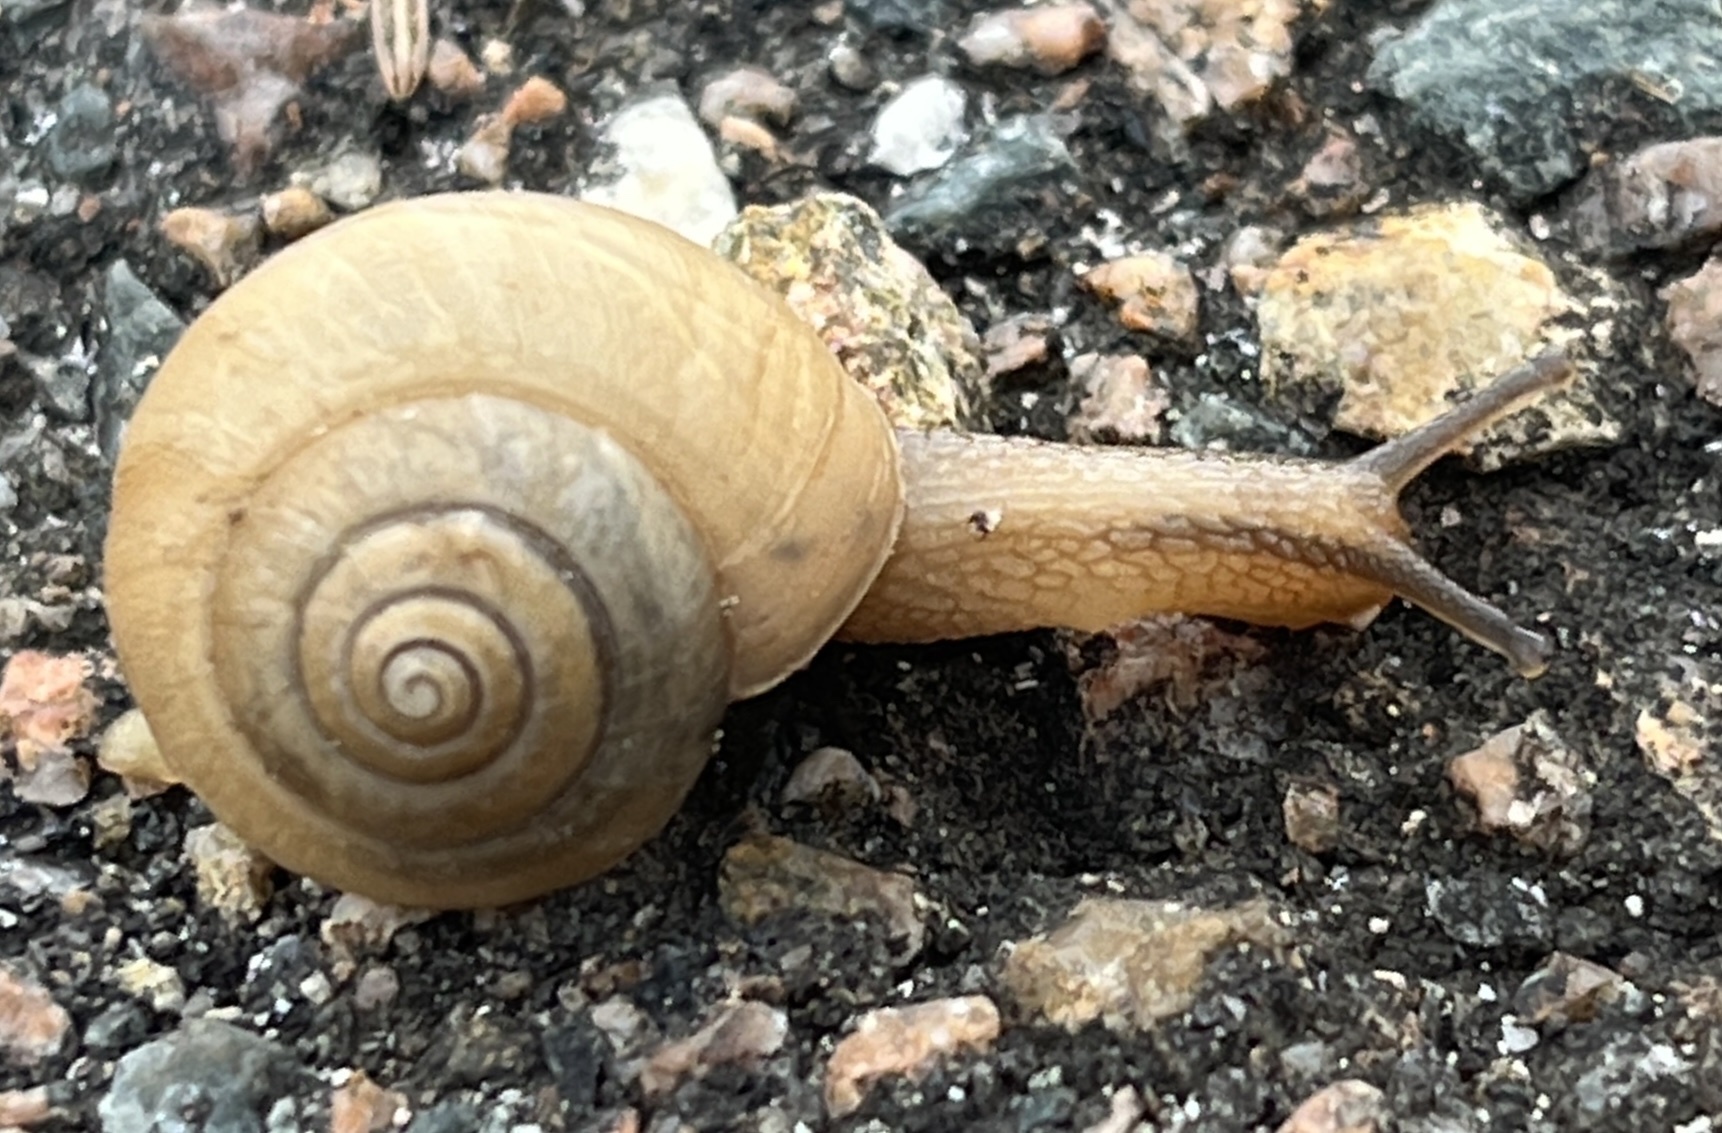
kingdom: Animalia
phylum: Mollusca
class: Gastropoda
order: Stylommatophora
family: Camaenidae
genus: Bradybaena
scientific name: Bradybaena similaris
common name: Asian trampsnail
